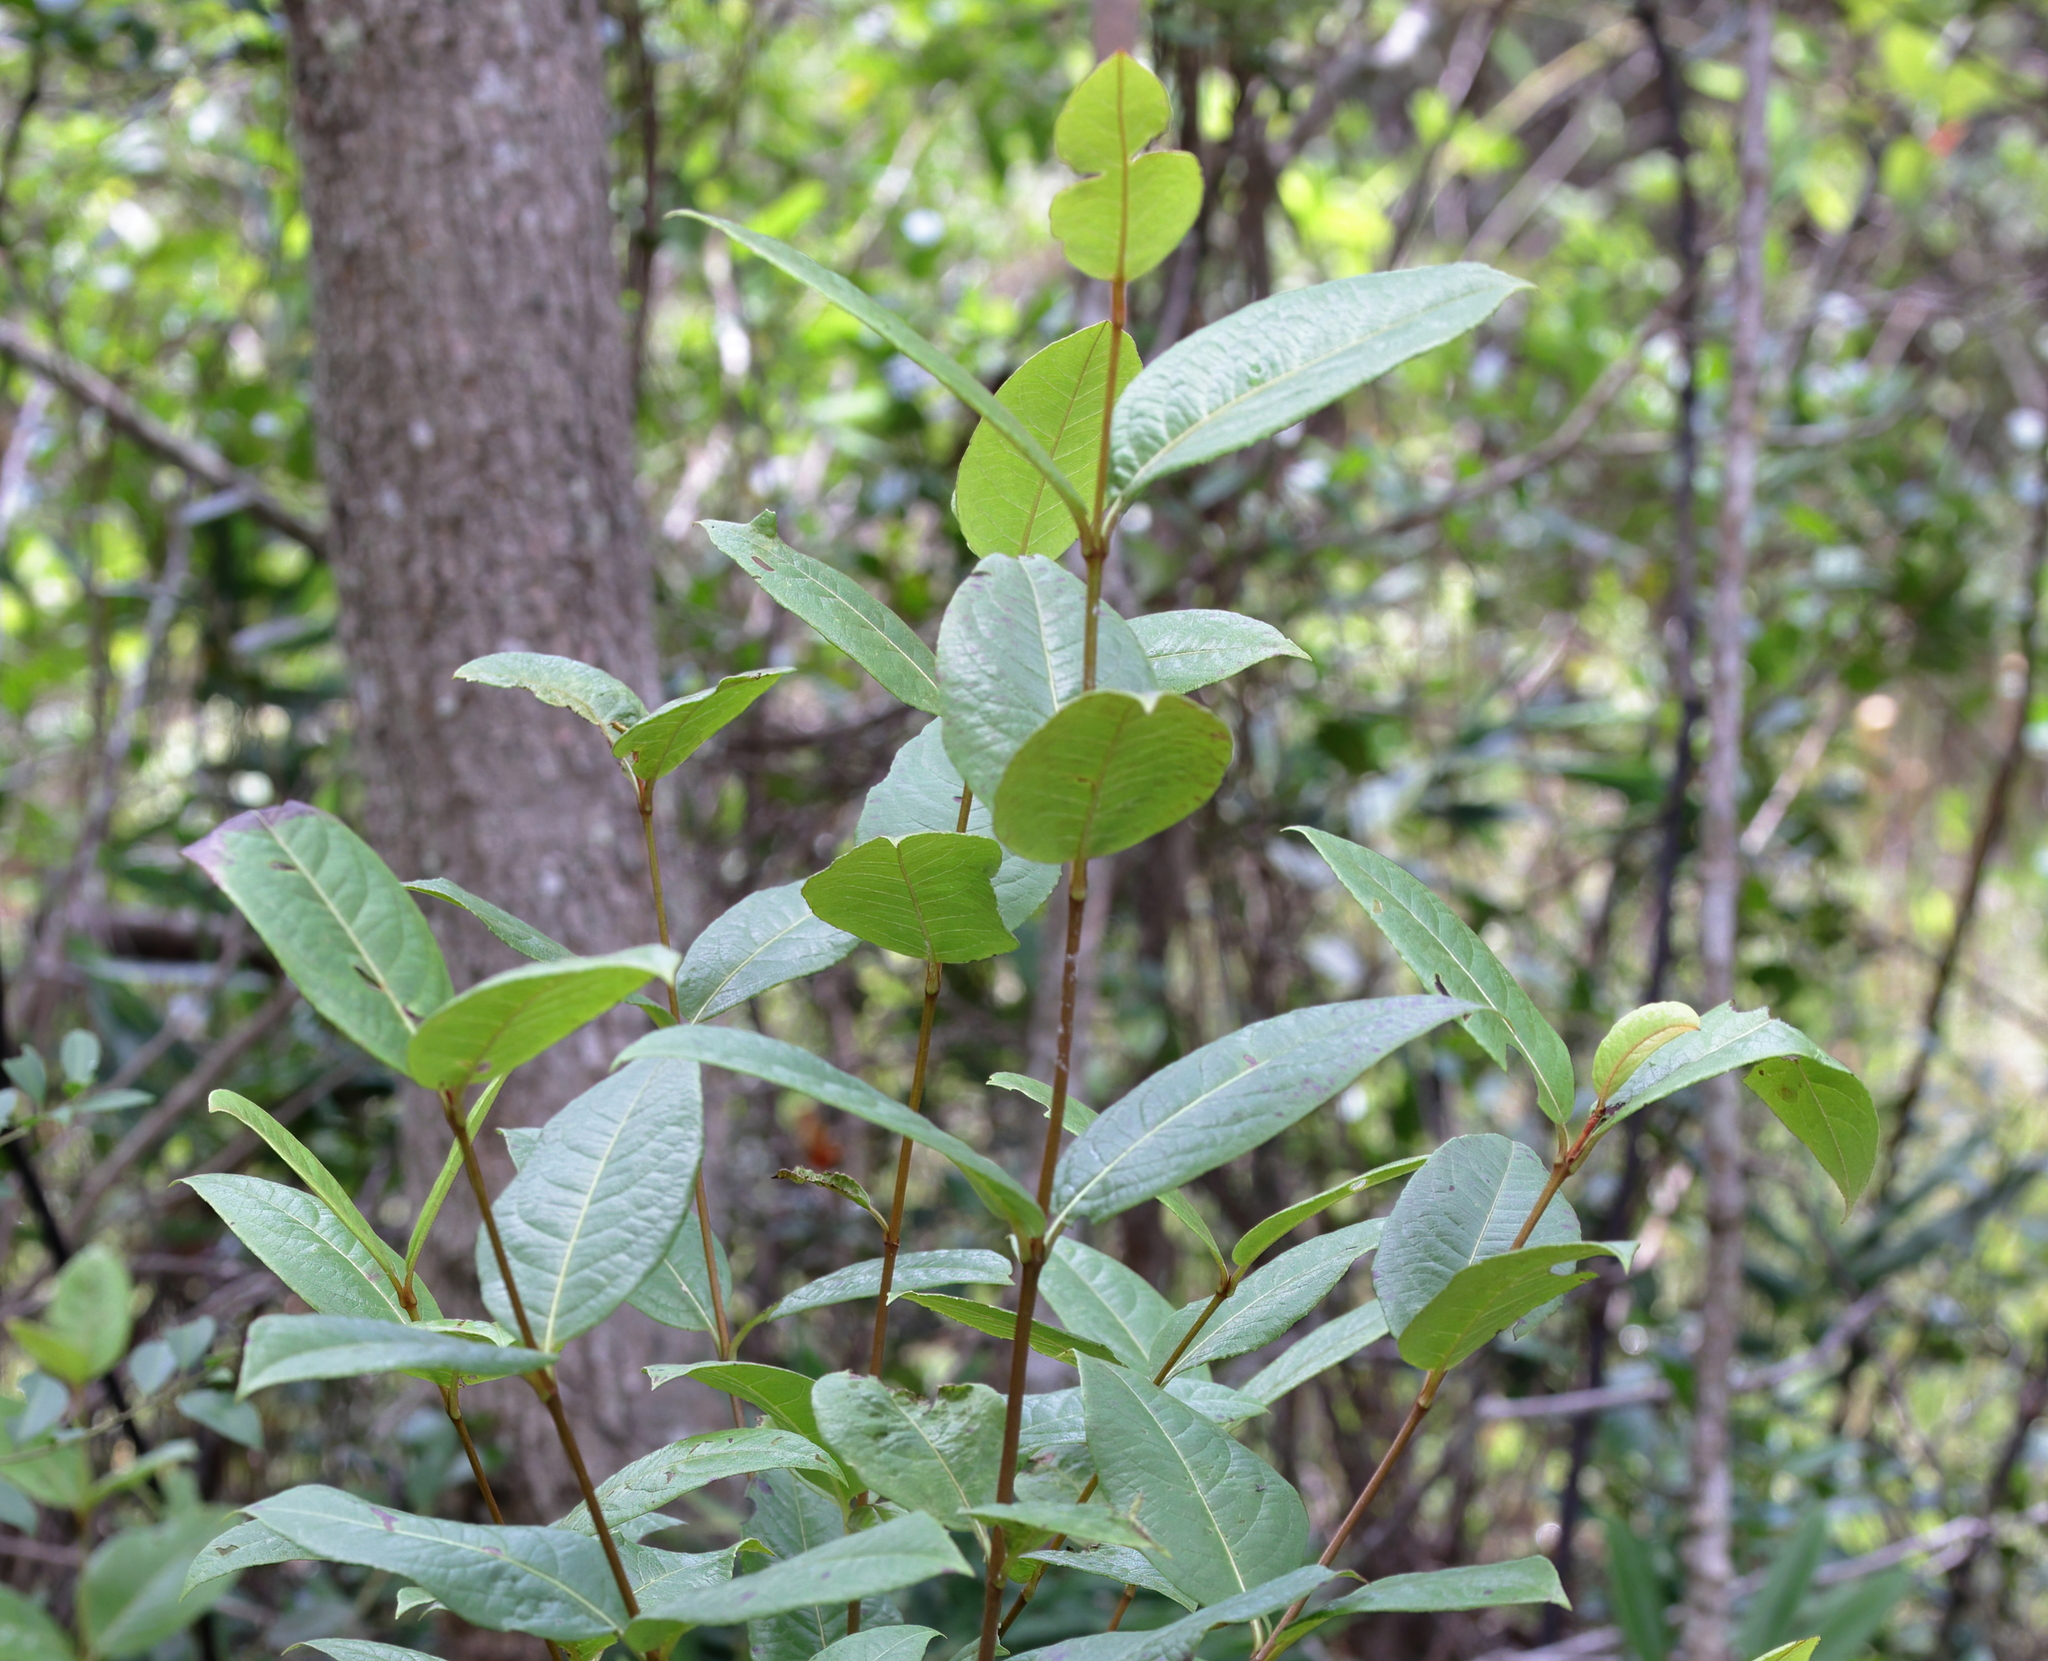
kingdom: Plantae
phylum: Tracheophyta
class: Magnoliopsida
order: Dipsacales
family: Viburnaceae
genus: Viburnum
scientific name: Viburnum nudum
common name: Possum haw
